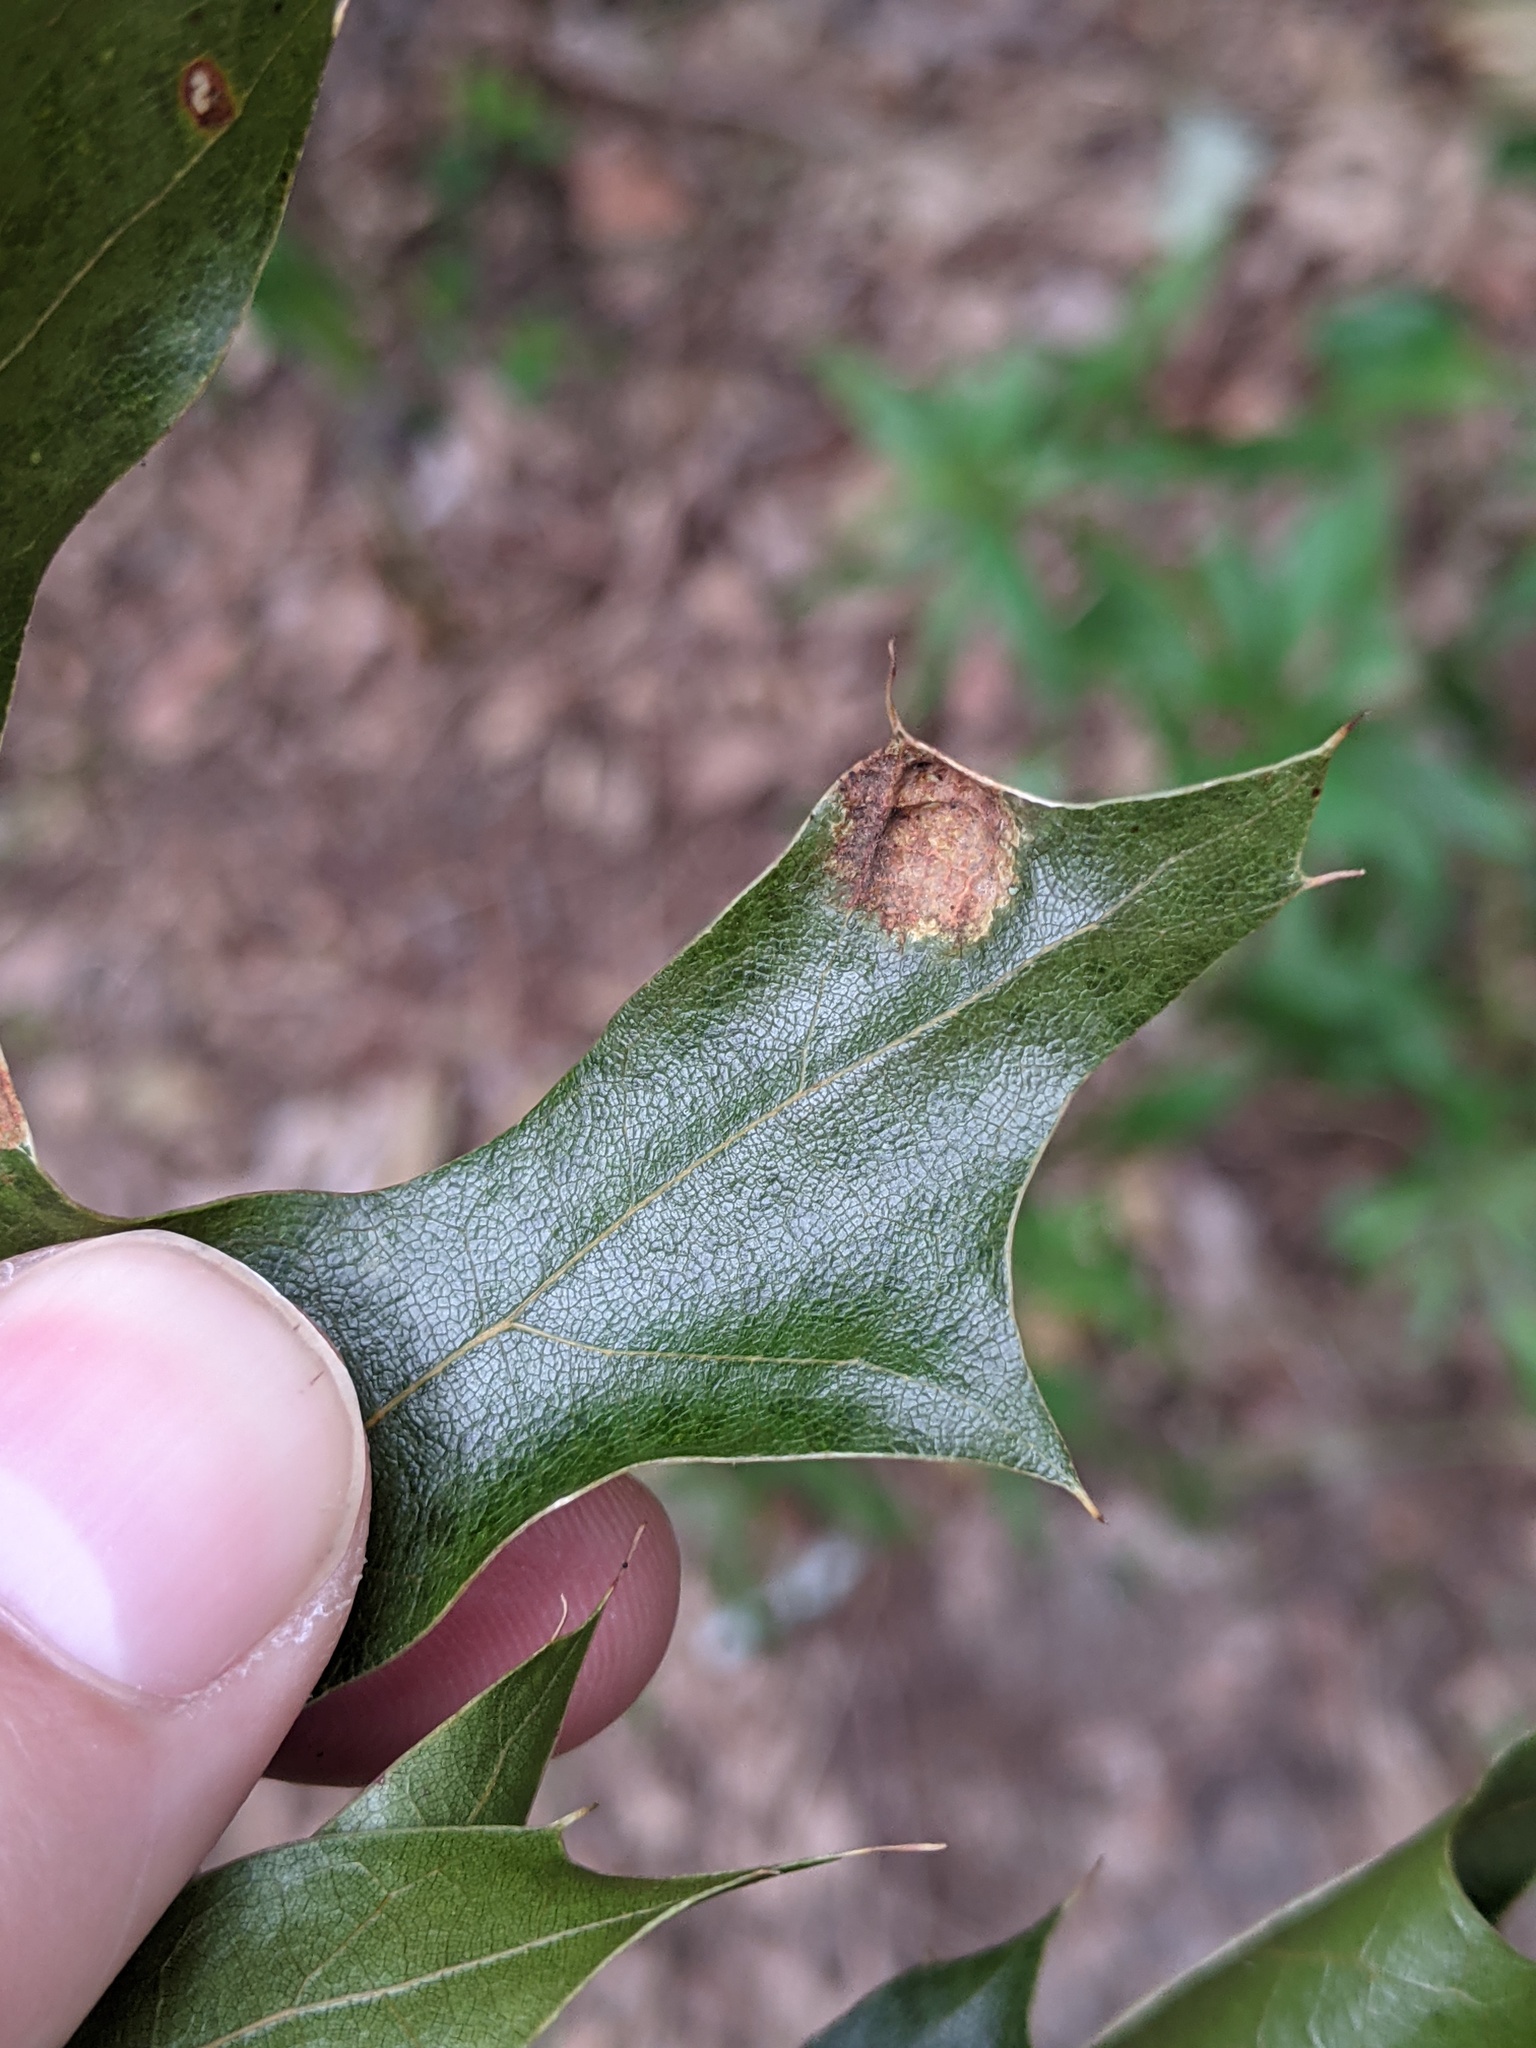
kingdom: Fungi
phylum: Ascomycota
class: Taphrinomycetes
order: Taphrinales
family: Taphrinaceae
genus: Taphrina
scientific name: Taphrina caerulescens
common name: Oak leaf blister
